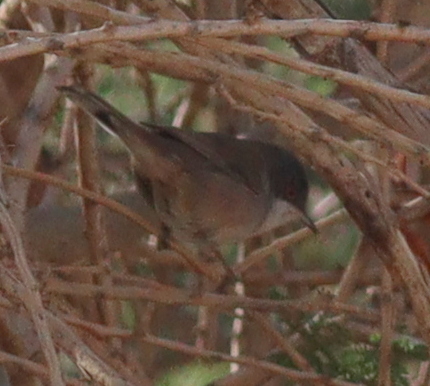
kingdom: Animalia
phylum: Chordata
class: Aves
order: Passeriformes
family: Sylviidae
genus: Curruca
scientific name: Curruca melanocephala
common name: Sardinian warbler
